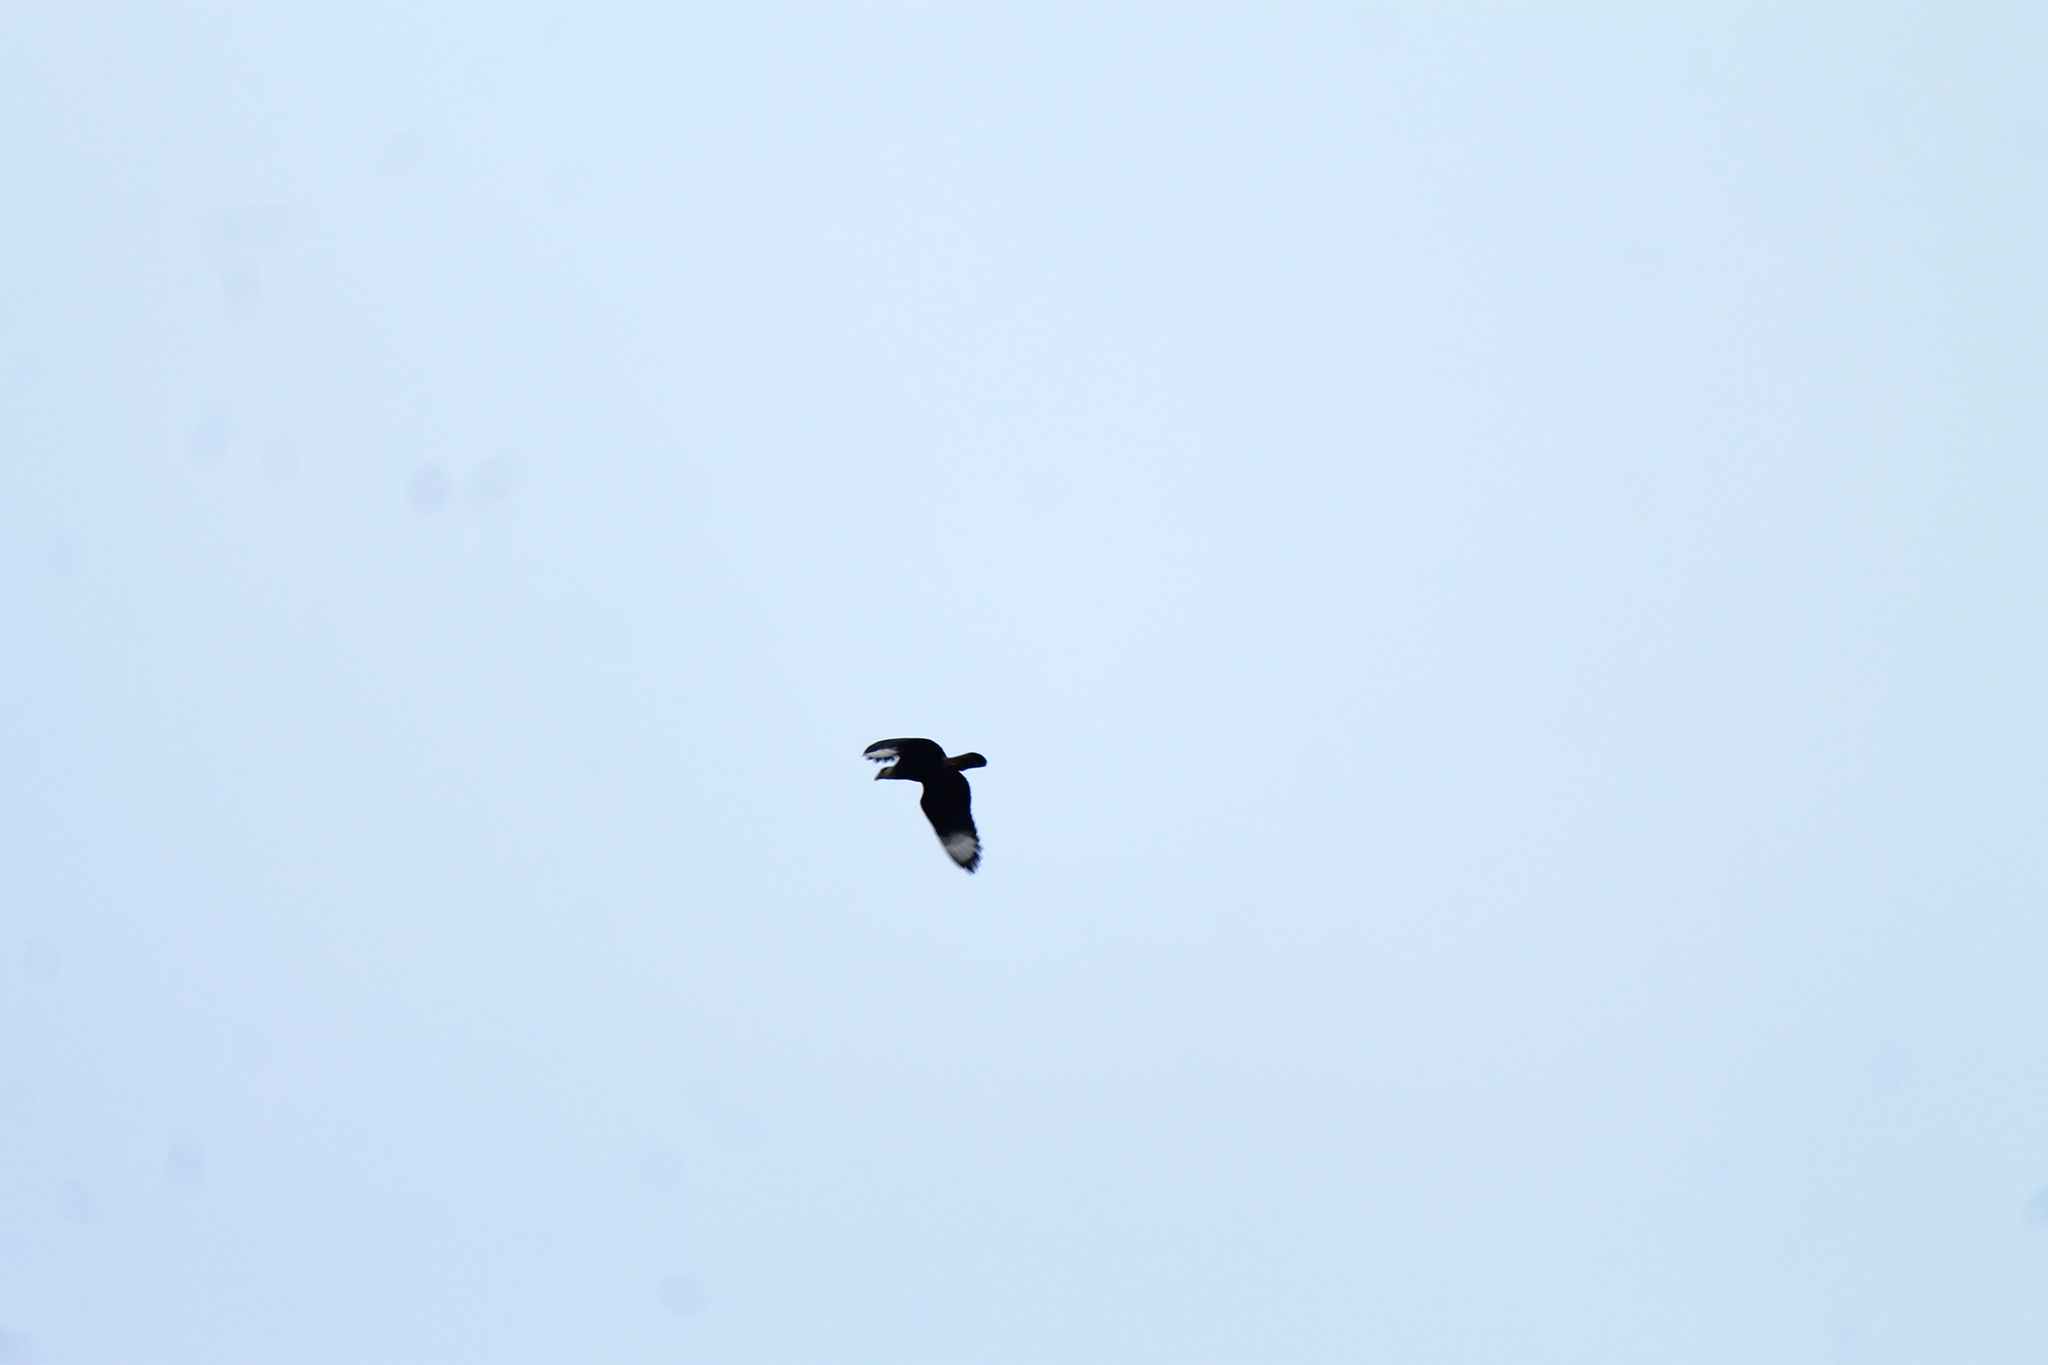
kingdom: Animalia
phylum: Chordata
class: Aves
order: Falconiformes
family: Falconidae
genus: Caracara
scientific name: Caracara plancus
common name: Southern caracara
